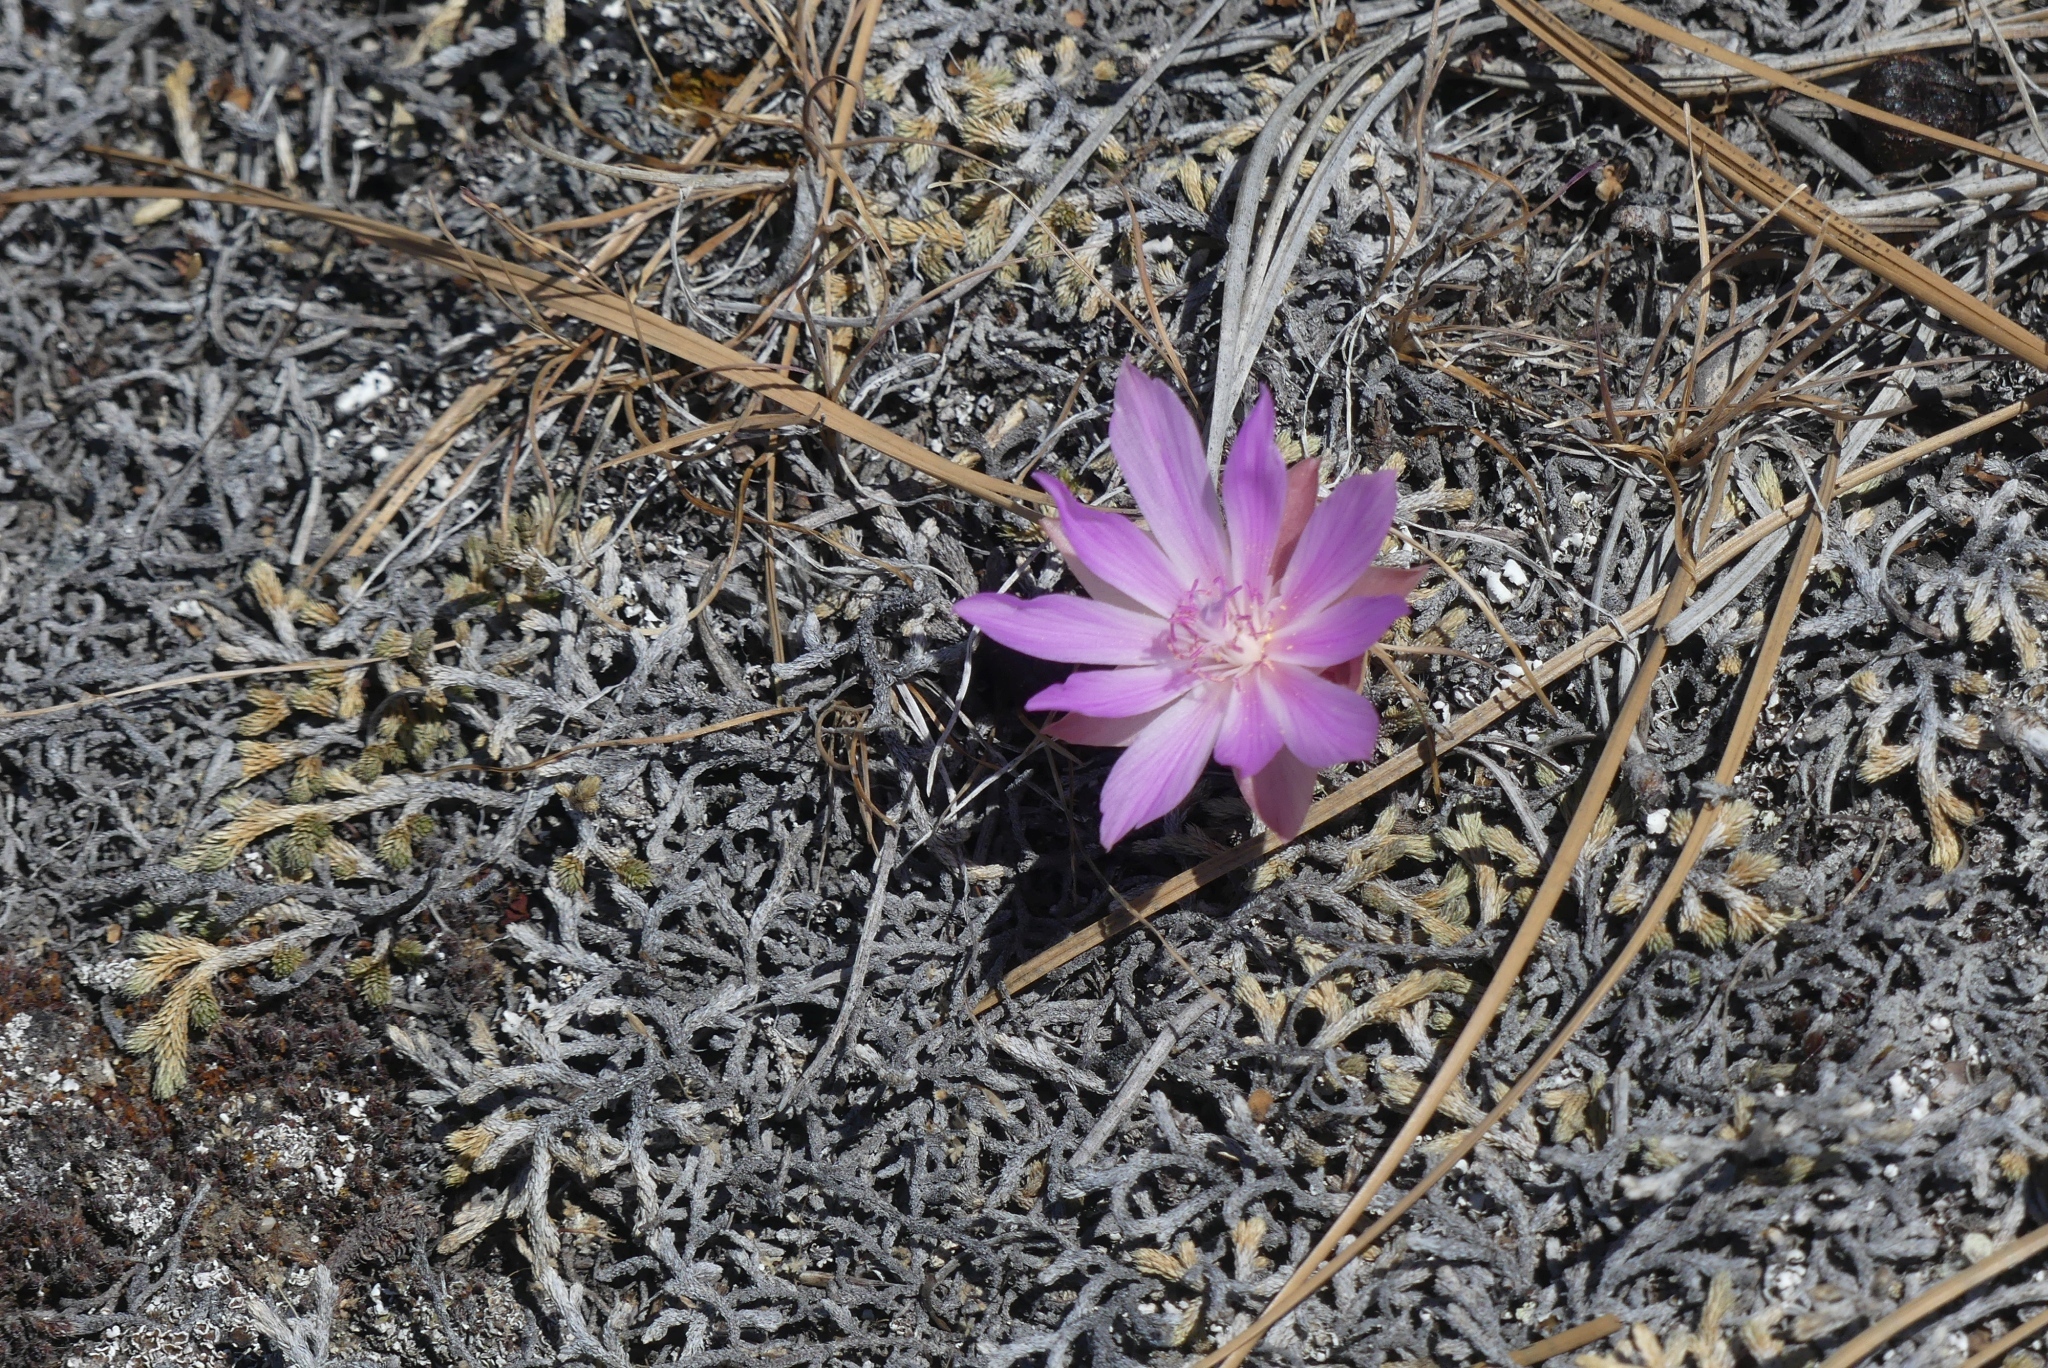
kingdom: Plantae
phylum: Tracheophyta
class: Magnoliopsida
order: Caryophyllales
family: Montiaceae
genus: Lewisia
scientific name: Lewisia rediviva
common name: Bitter-root
